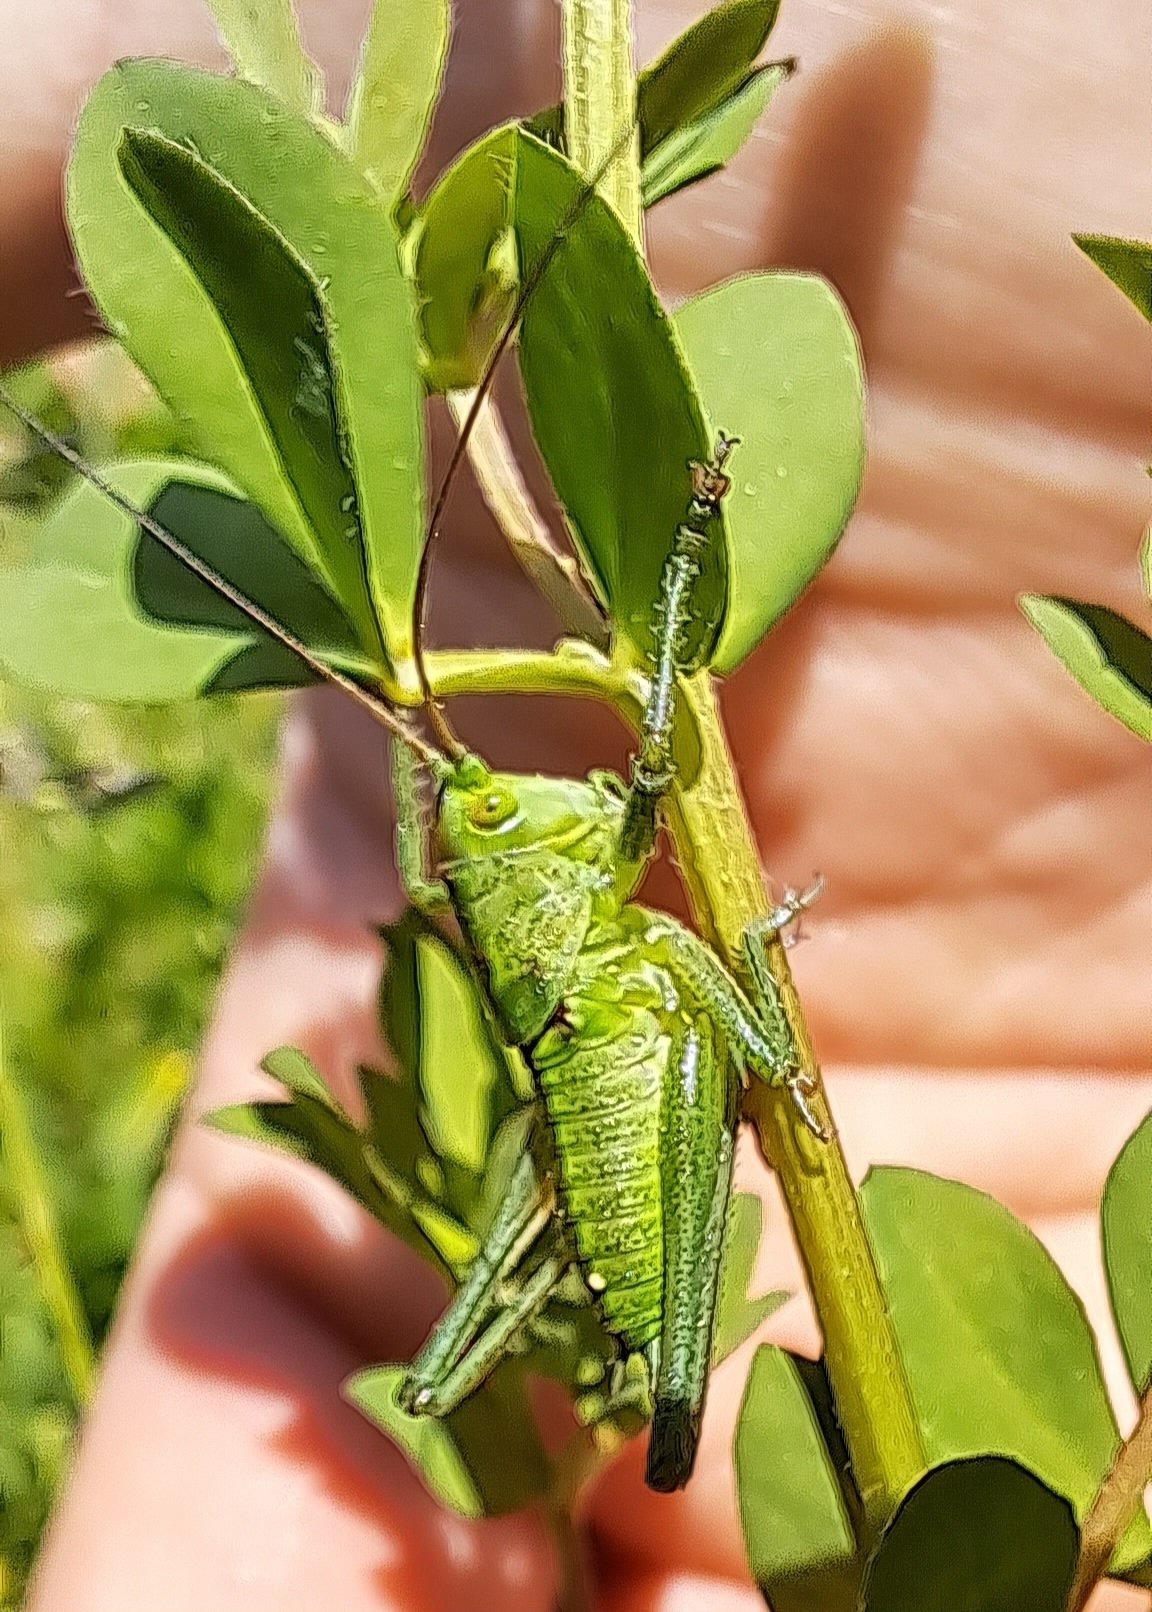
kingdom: Animalia
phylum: Arthropoda
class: Insecta
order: Orthoptera
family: Tettigoniidae
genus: Tettigonia
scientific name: Tettigonia viridissima
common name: Great green bush-cricket
